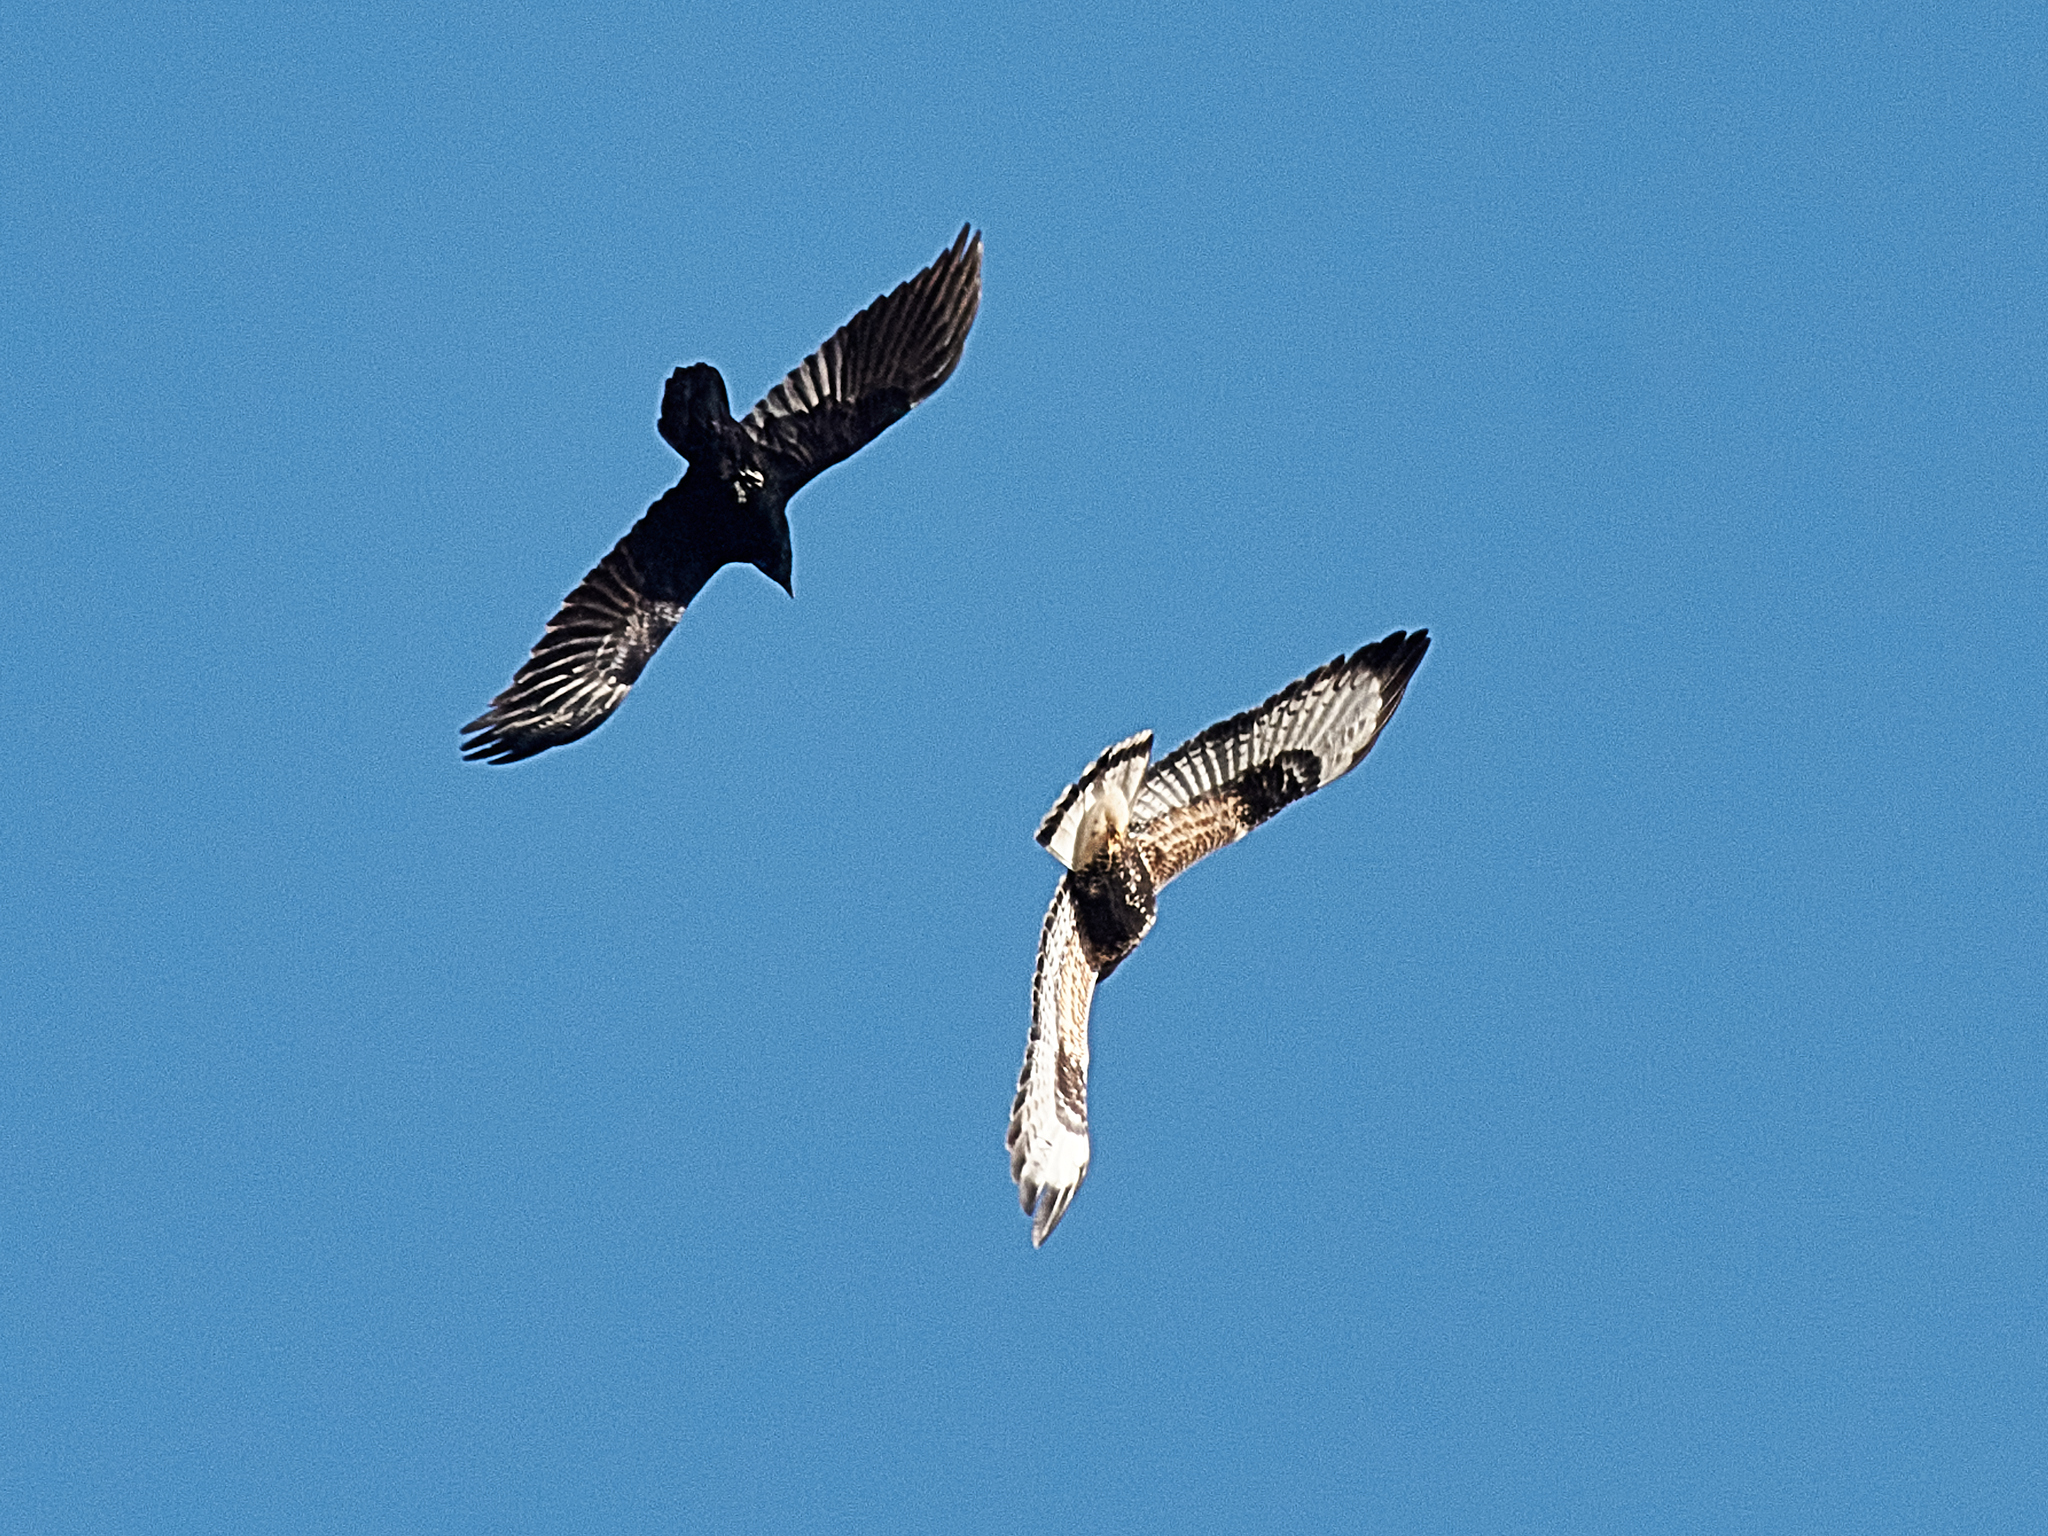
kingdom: Animalia
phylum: Chordata
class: Aves
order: Accipitriformes
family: Accipitridae
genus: Buteo
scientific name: Buteo lagopus
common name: Rough-legged buzzard
